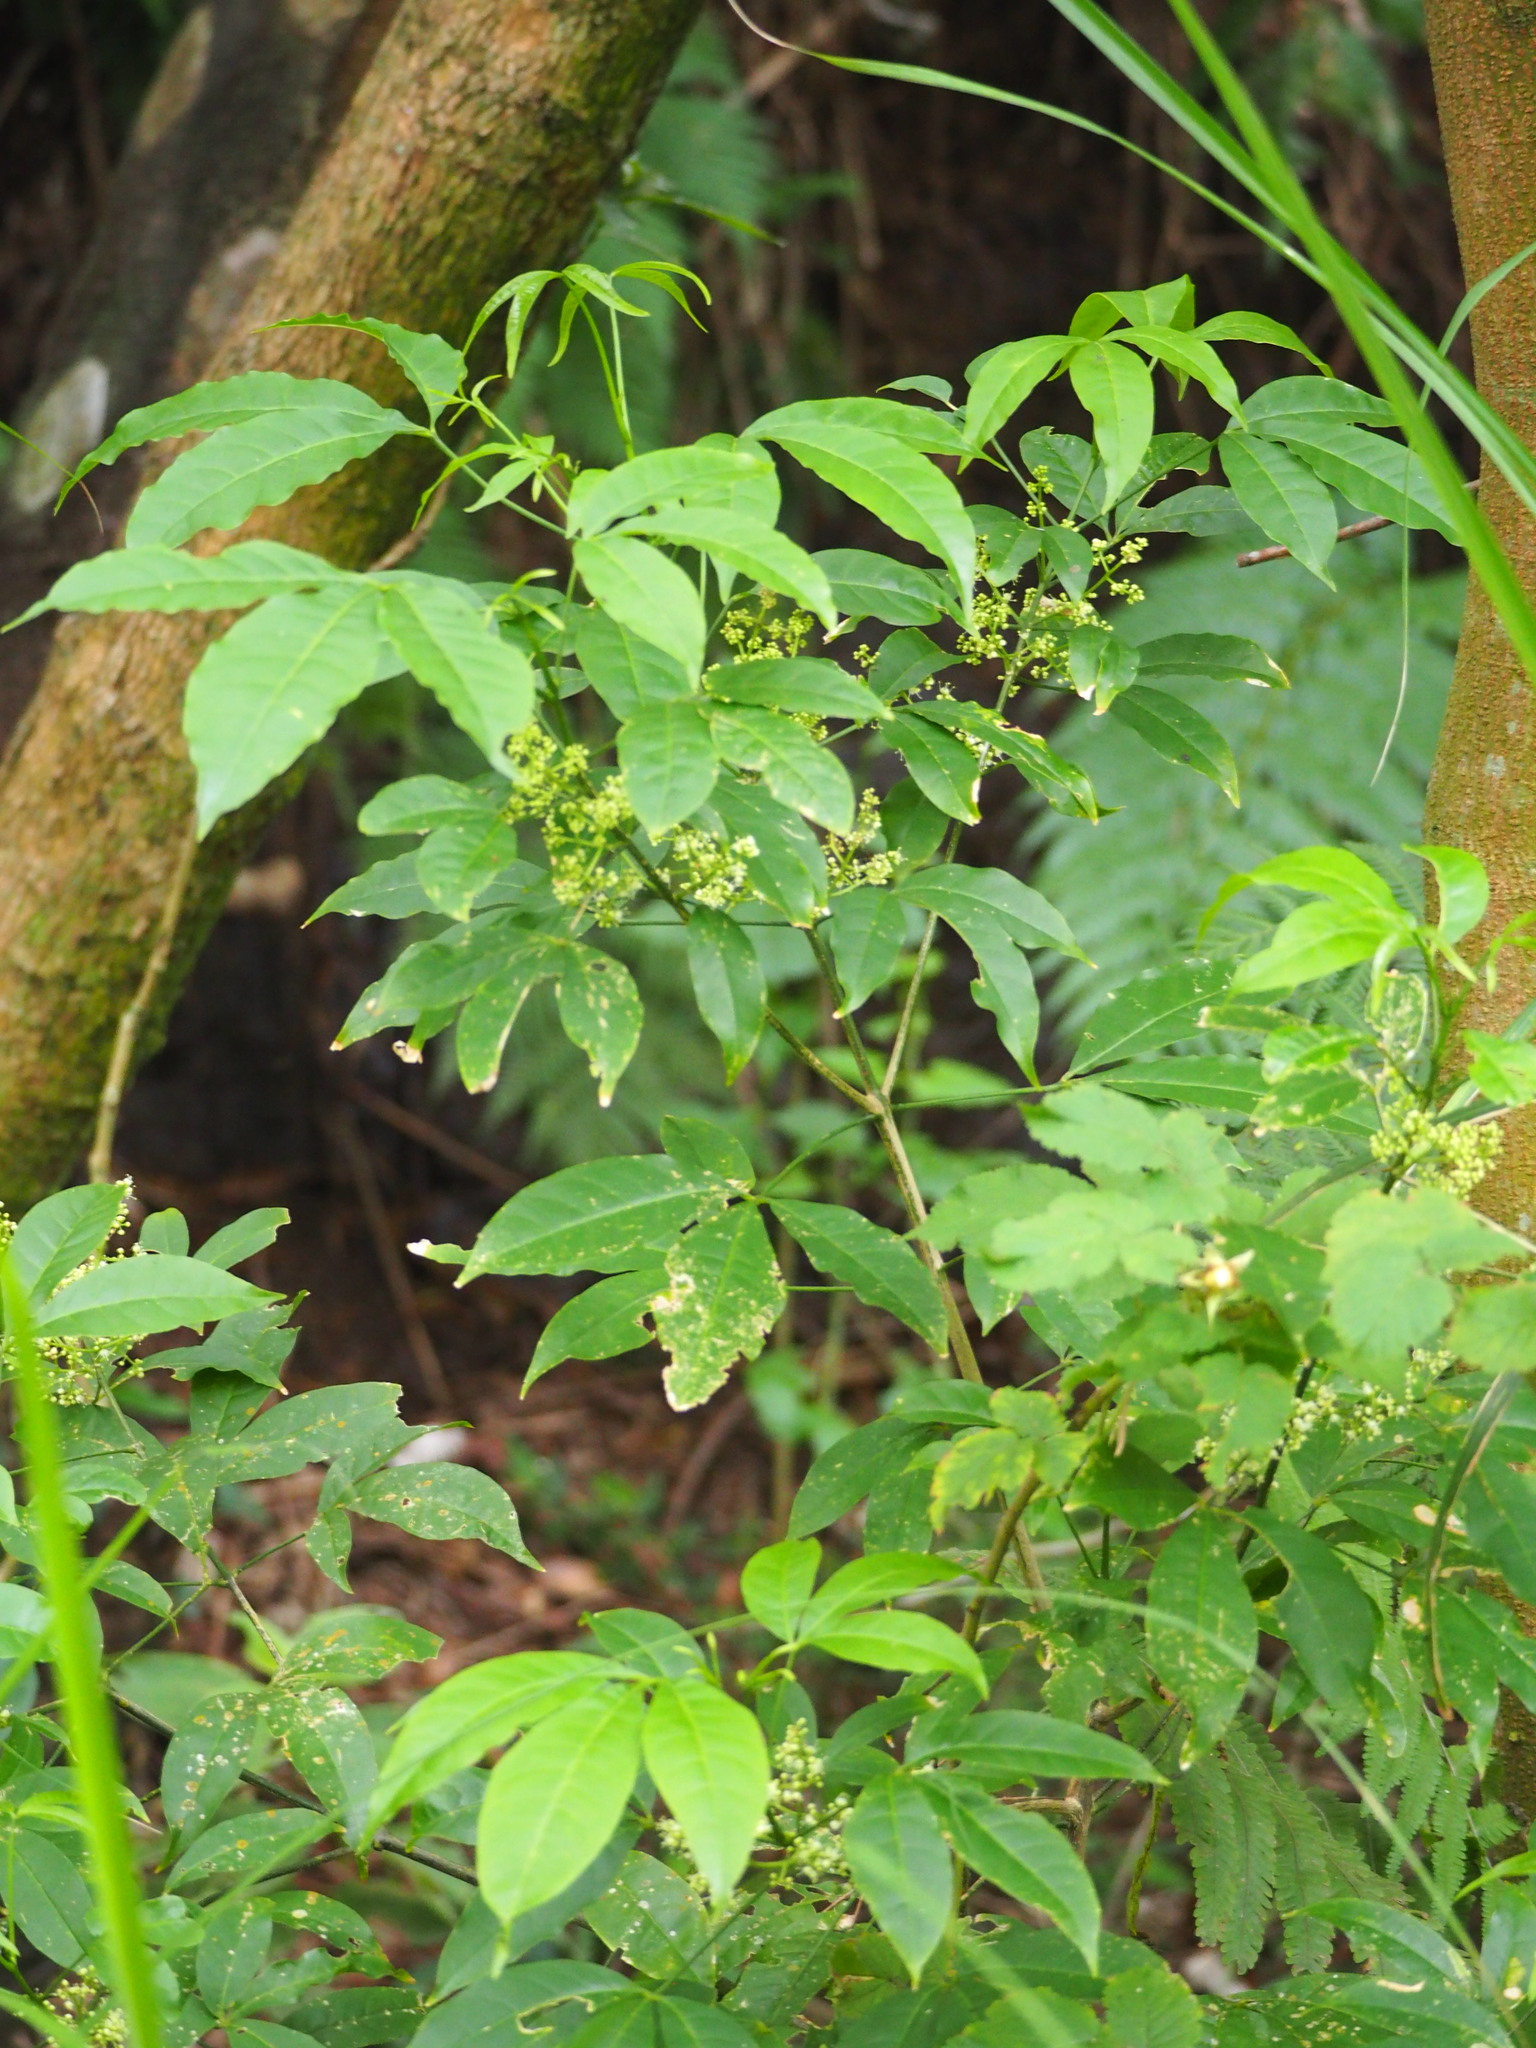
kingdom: Plantae
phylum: Tracheophyta
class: Magnoliopsida
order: Sapindales
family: Rutaceae
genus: Melicope
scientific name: Melicope pteleifolia
